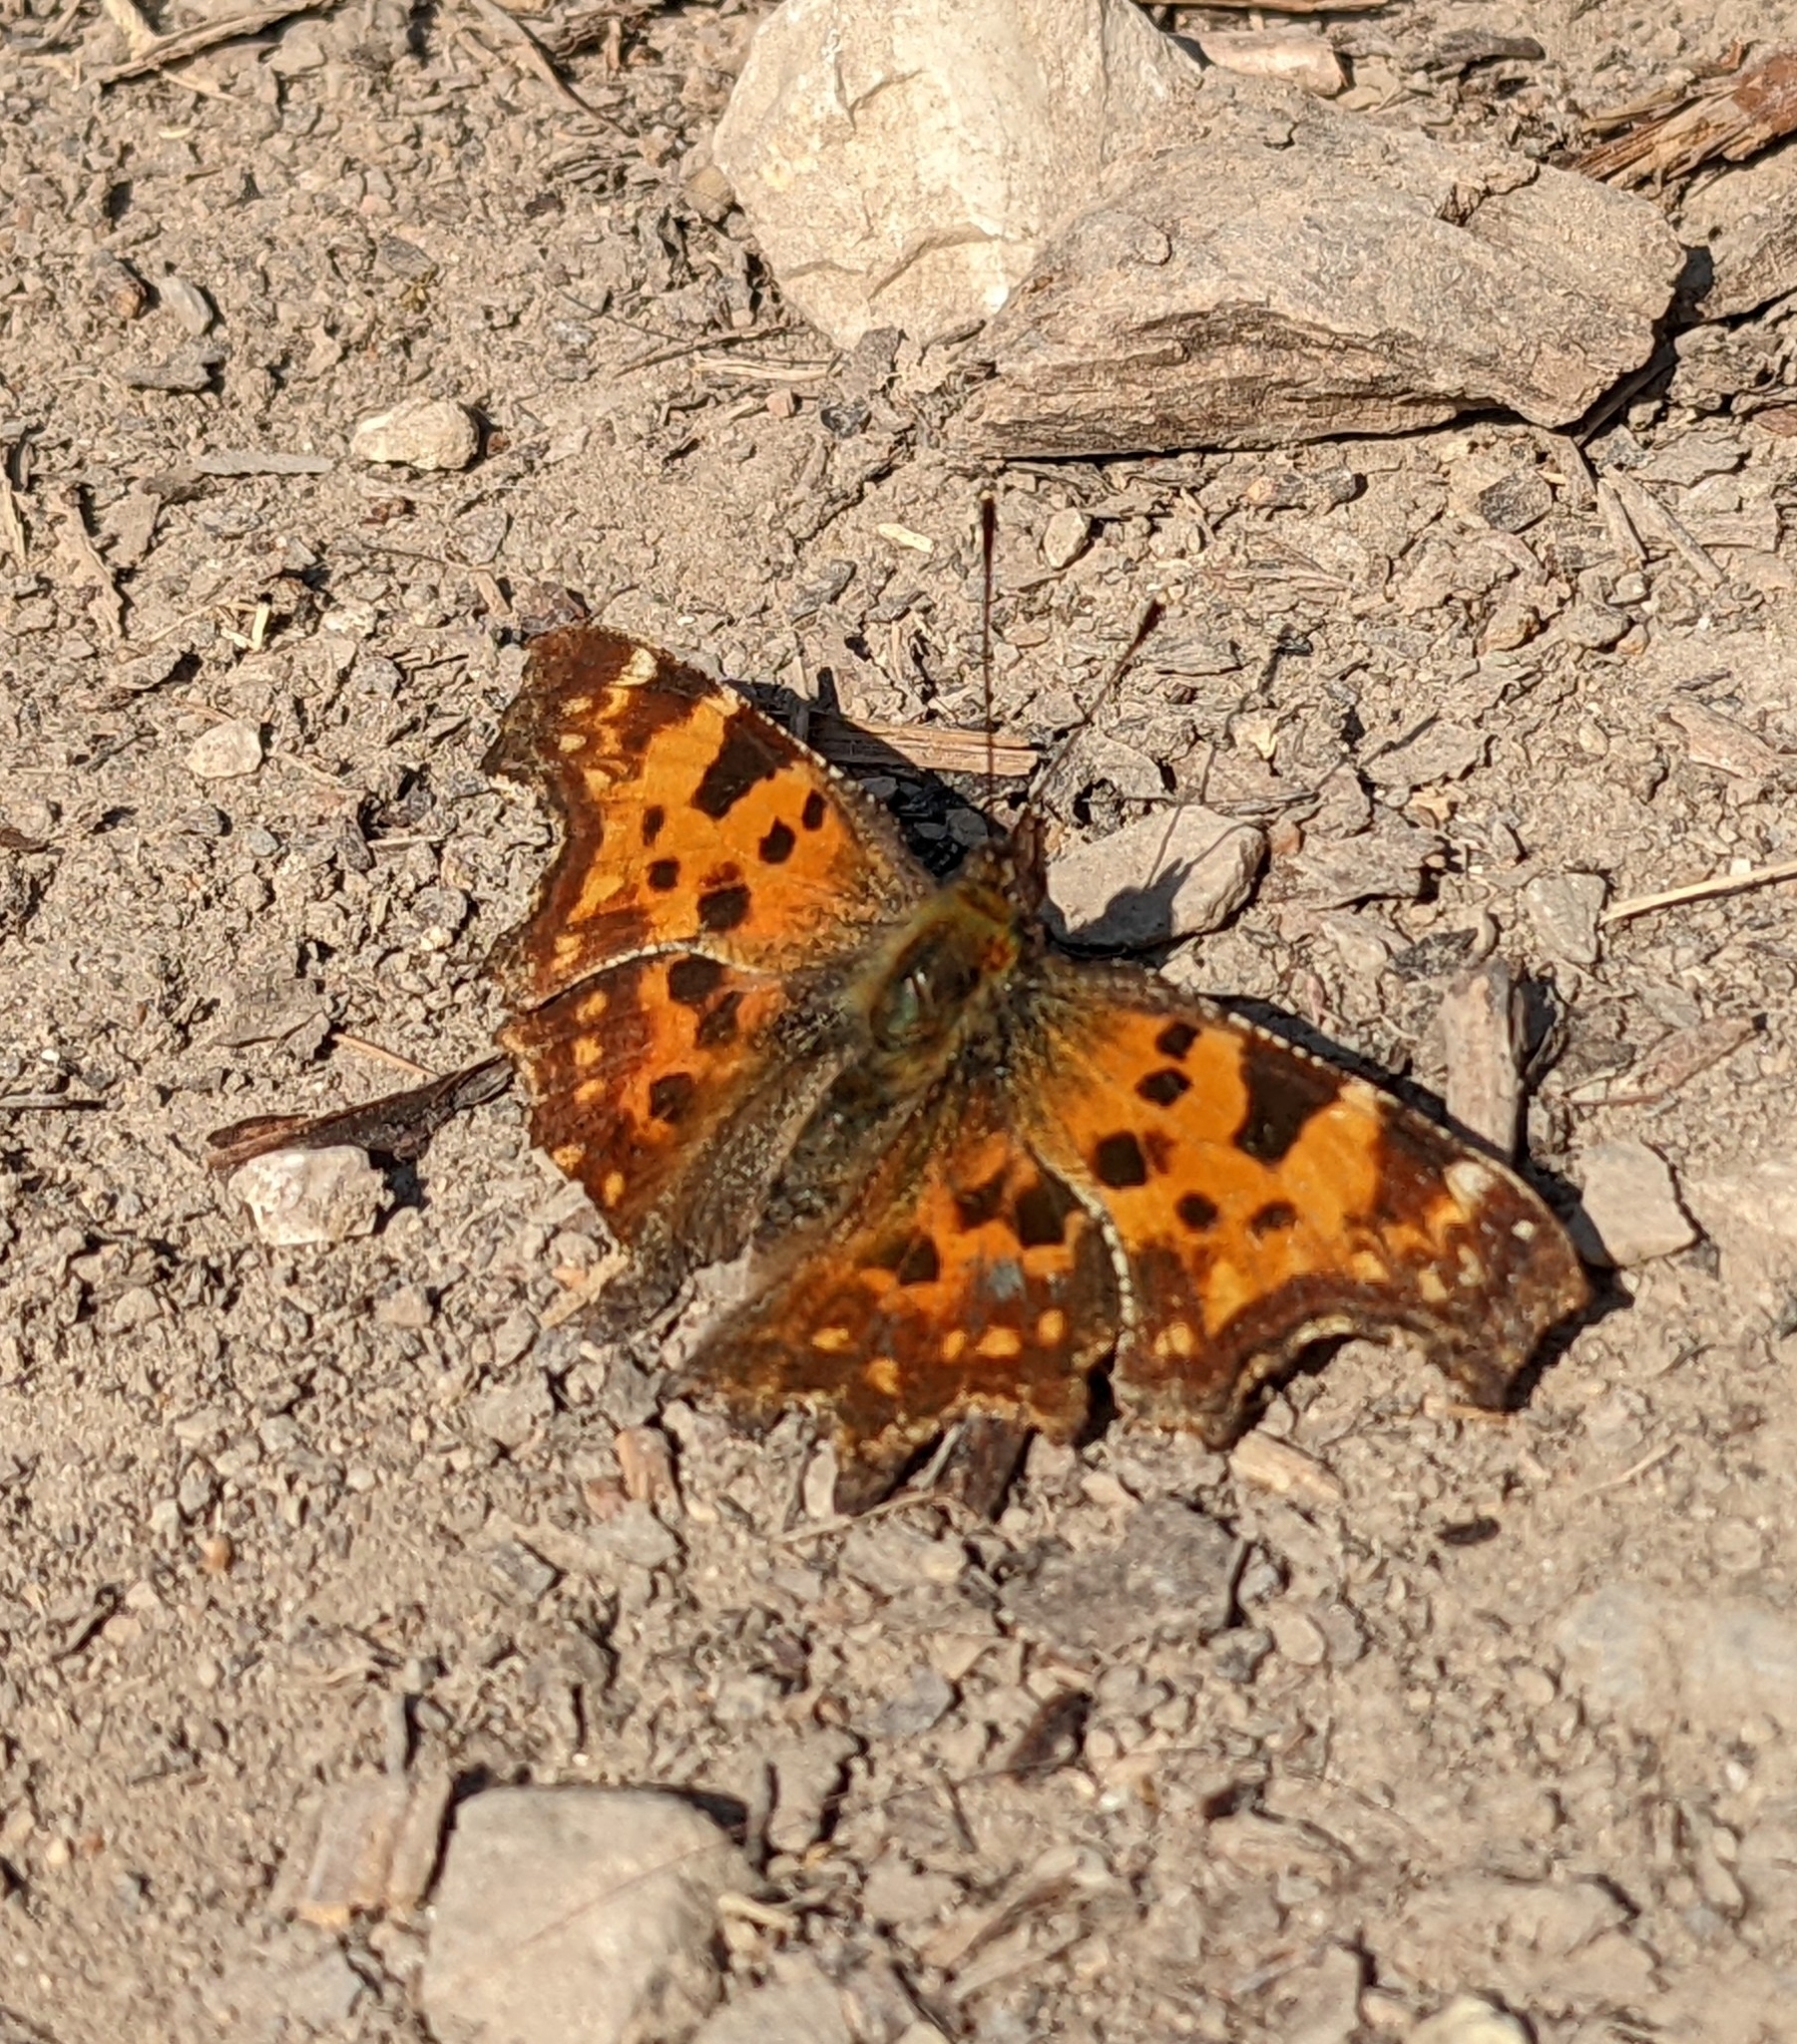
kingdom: Animalia
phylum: Arthropoda
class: Insecta
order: Lepidoptera
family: Nymphalidae
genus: Polygonia
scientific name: Polygonia c-album
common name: Comma
